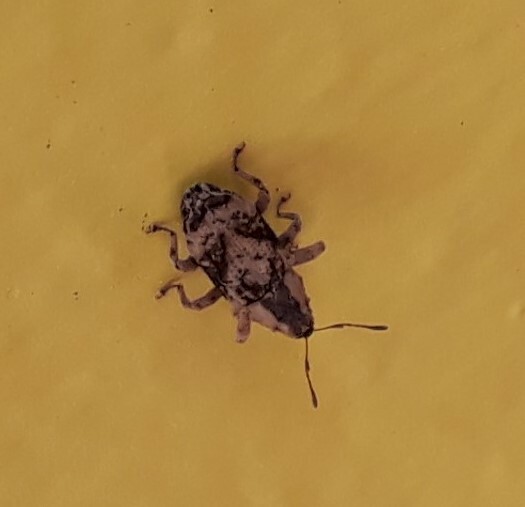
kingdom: Animalia
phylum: Arthropoda
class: Insecta
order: Coleoptera
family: Curculionidae
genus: Mecistostylus
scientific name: Mecistostylus douei
